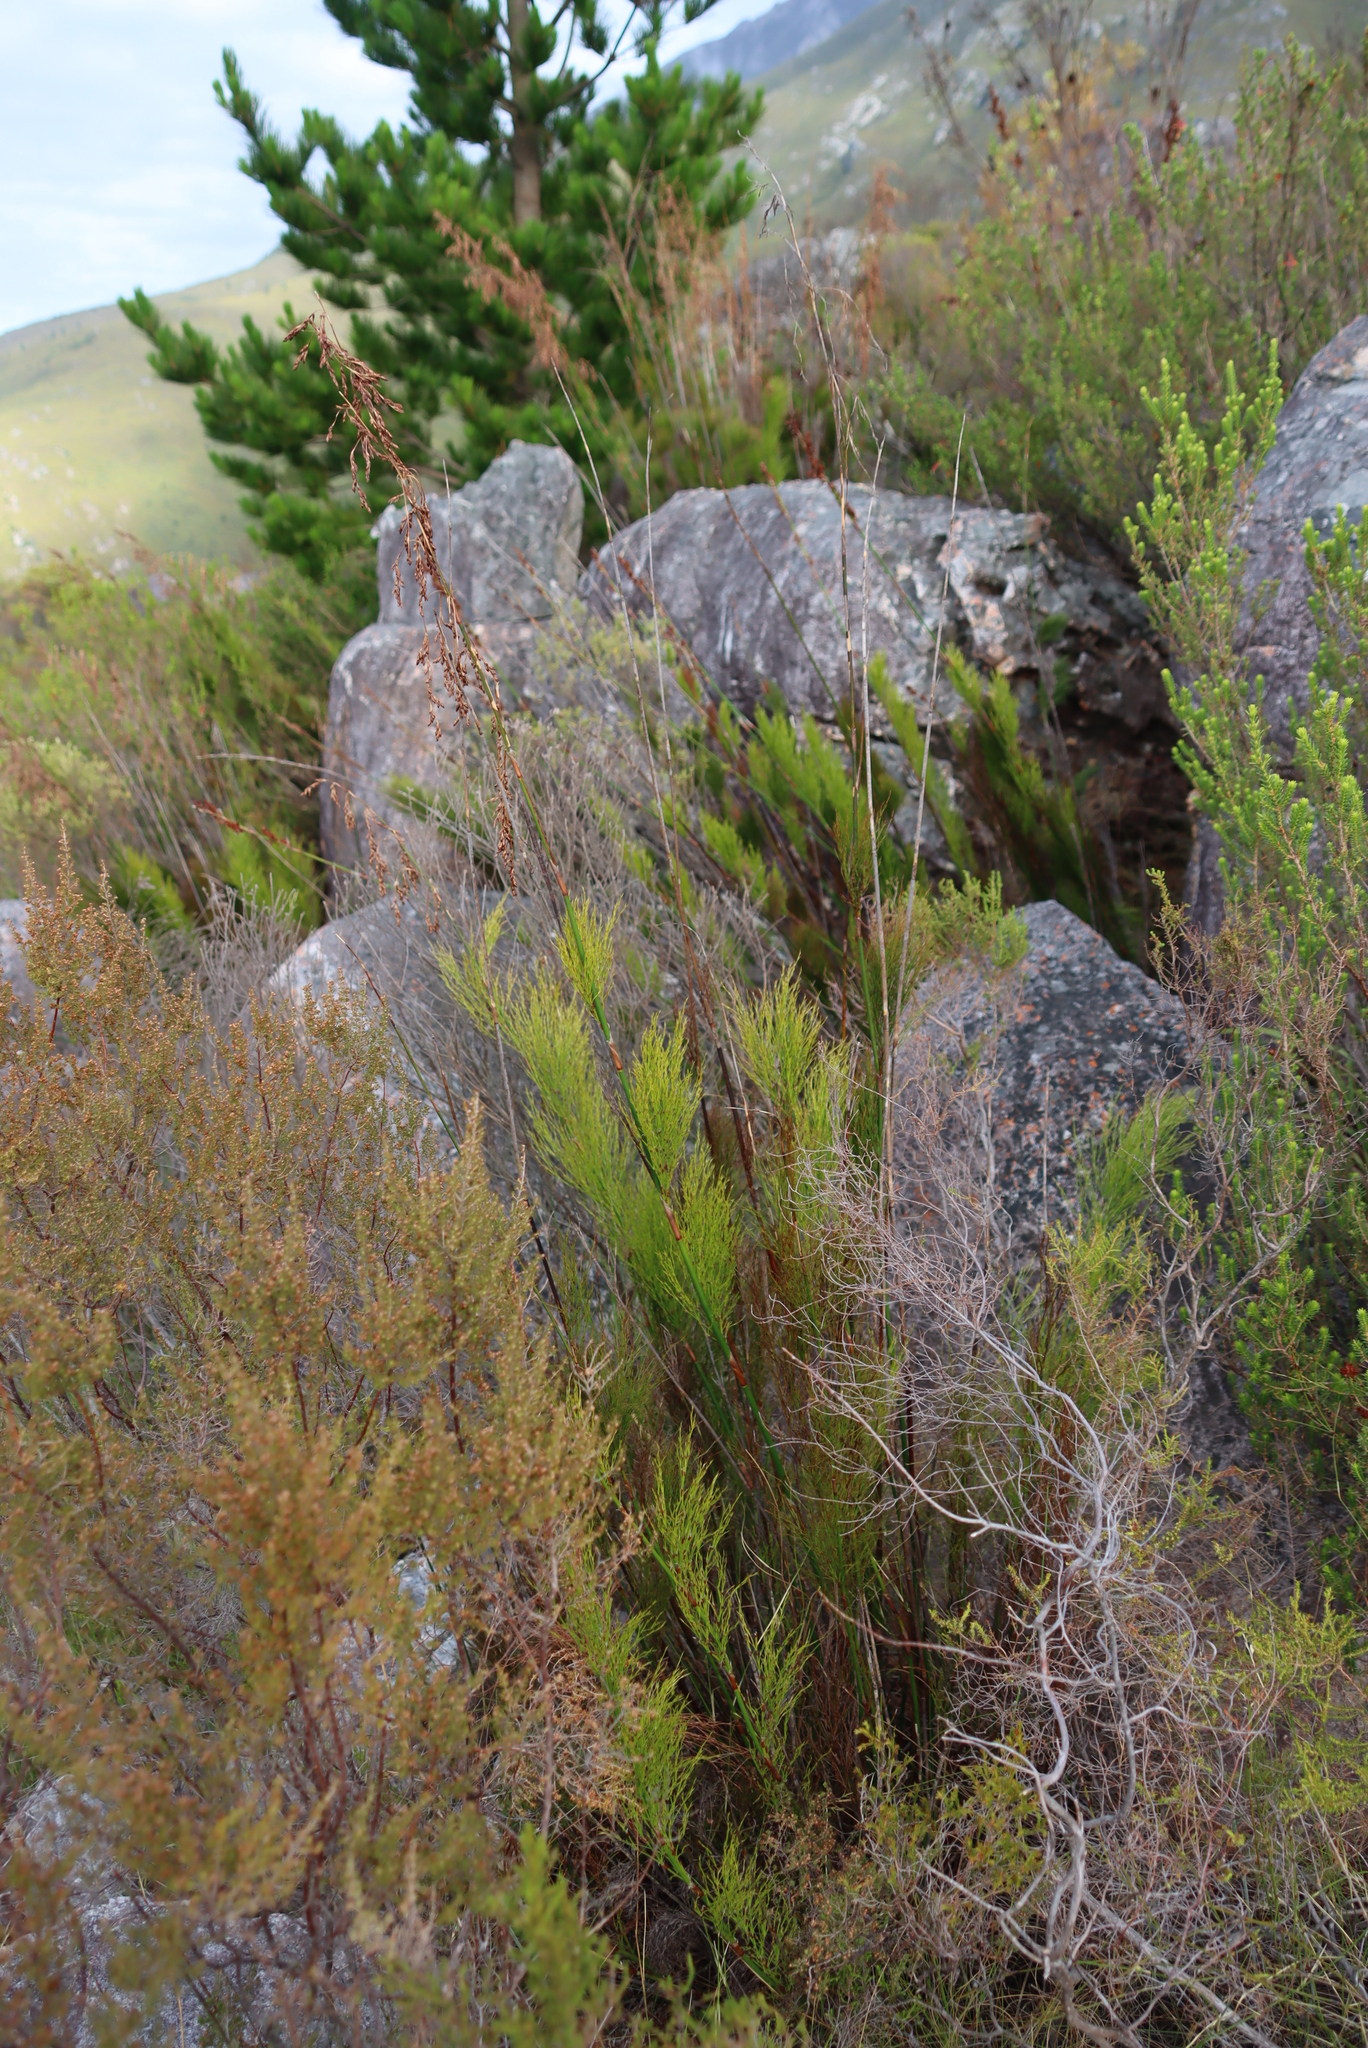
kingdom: Plantae
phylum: Tracheophyta
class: Liliopsida
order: Poales
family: Restionaceae
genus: Rhodocoma
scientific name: Rhodocoma foliosa
